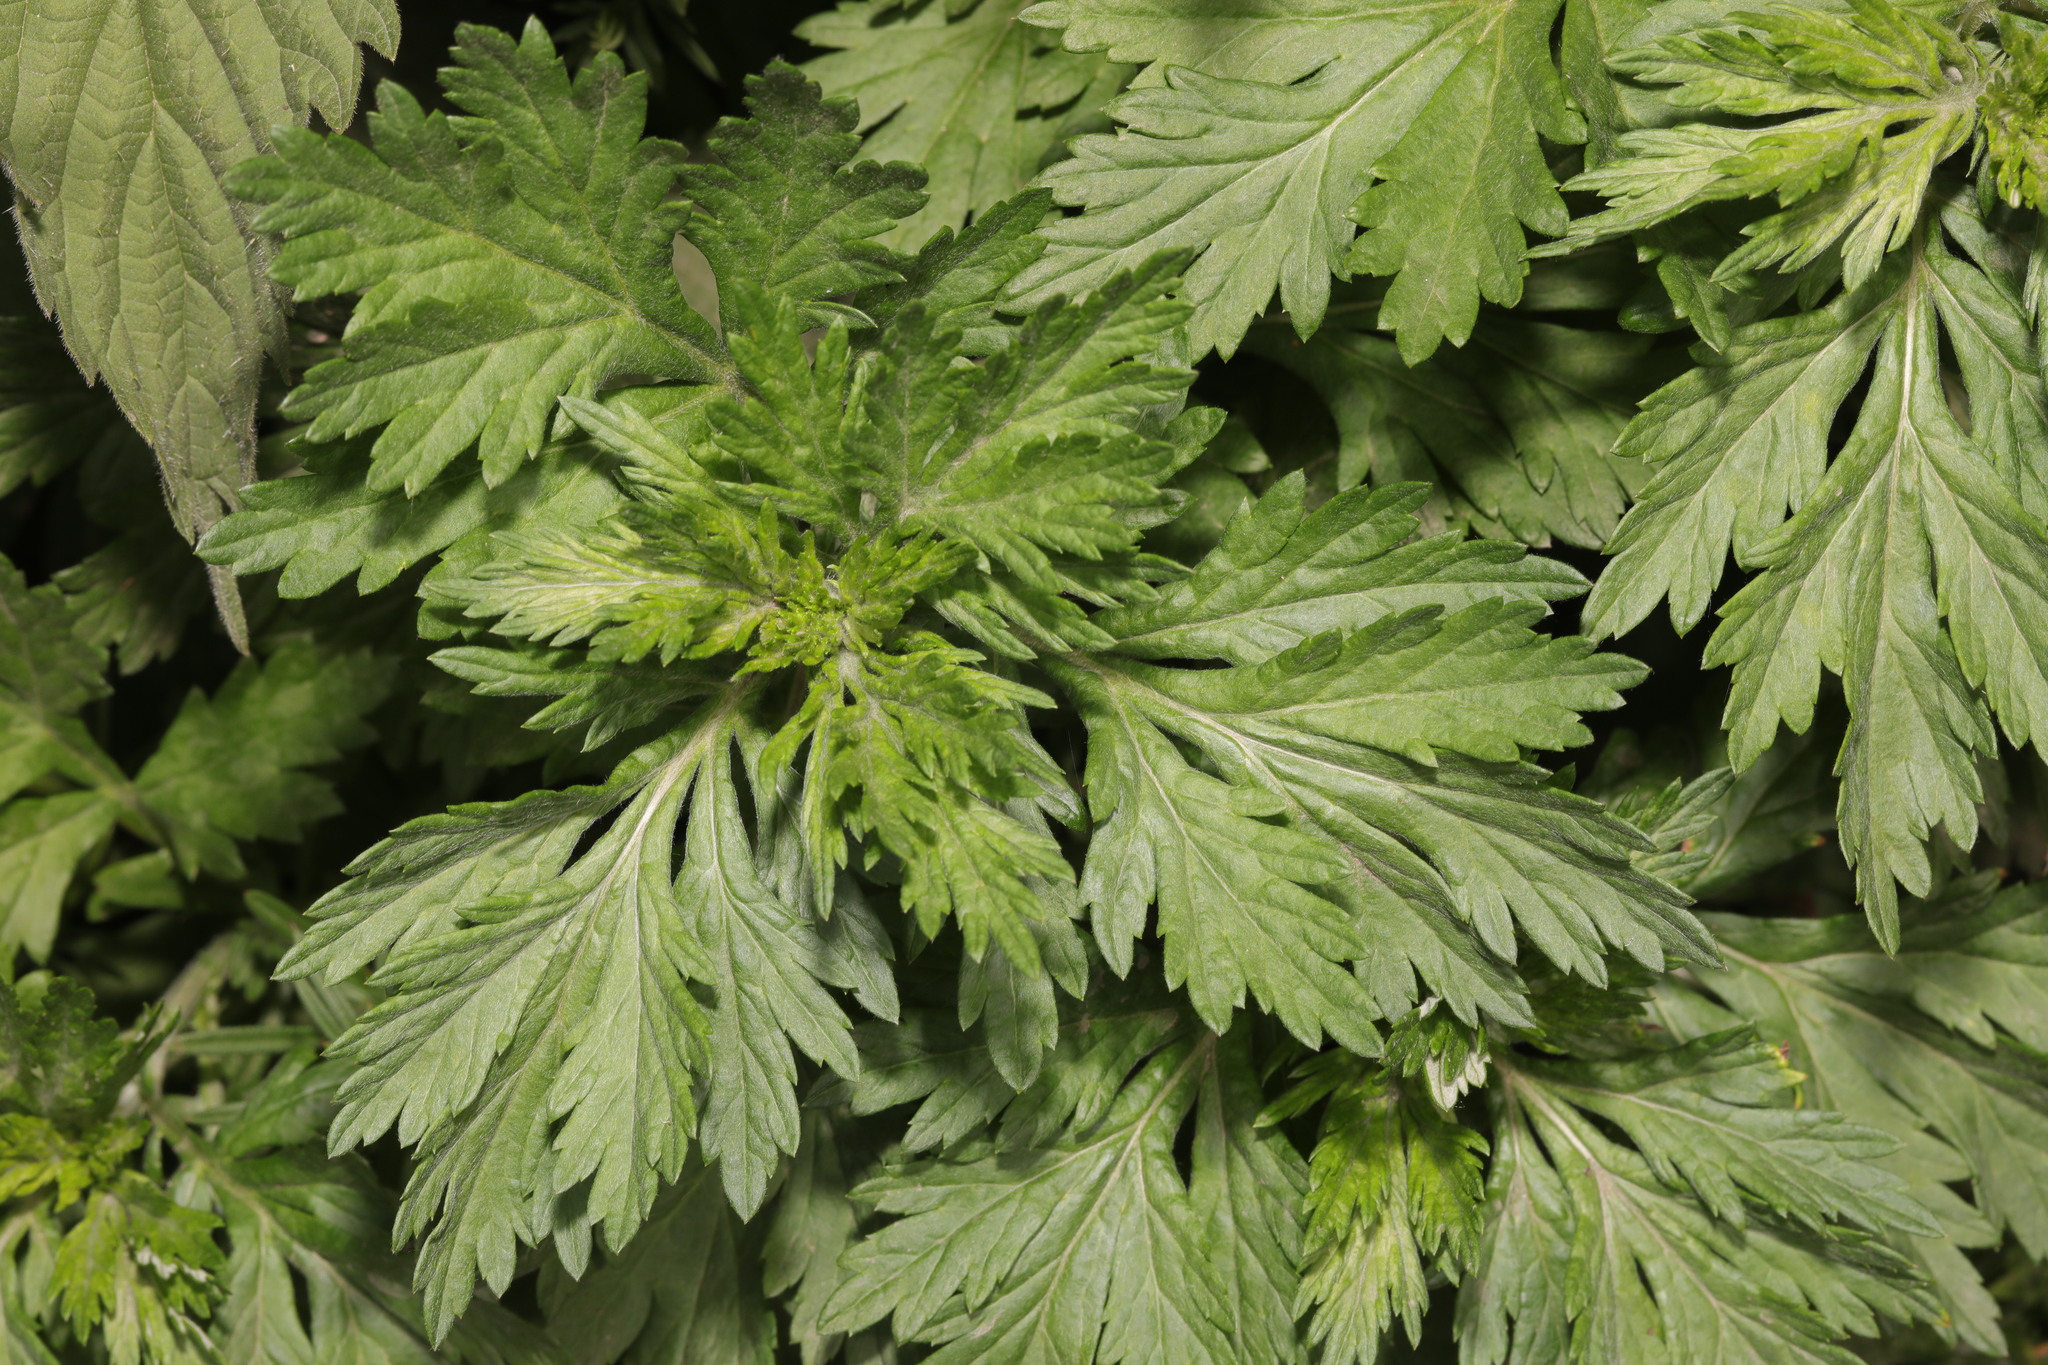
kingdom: Plantae
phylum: Tracheophyta
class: Magnoliopsida
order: Asterales
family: Asteraceae
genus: Artemisia
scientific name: Artemisia vulgaris
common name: Mugwort
